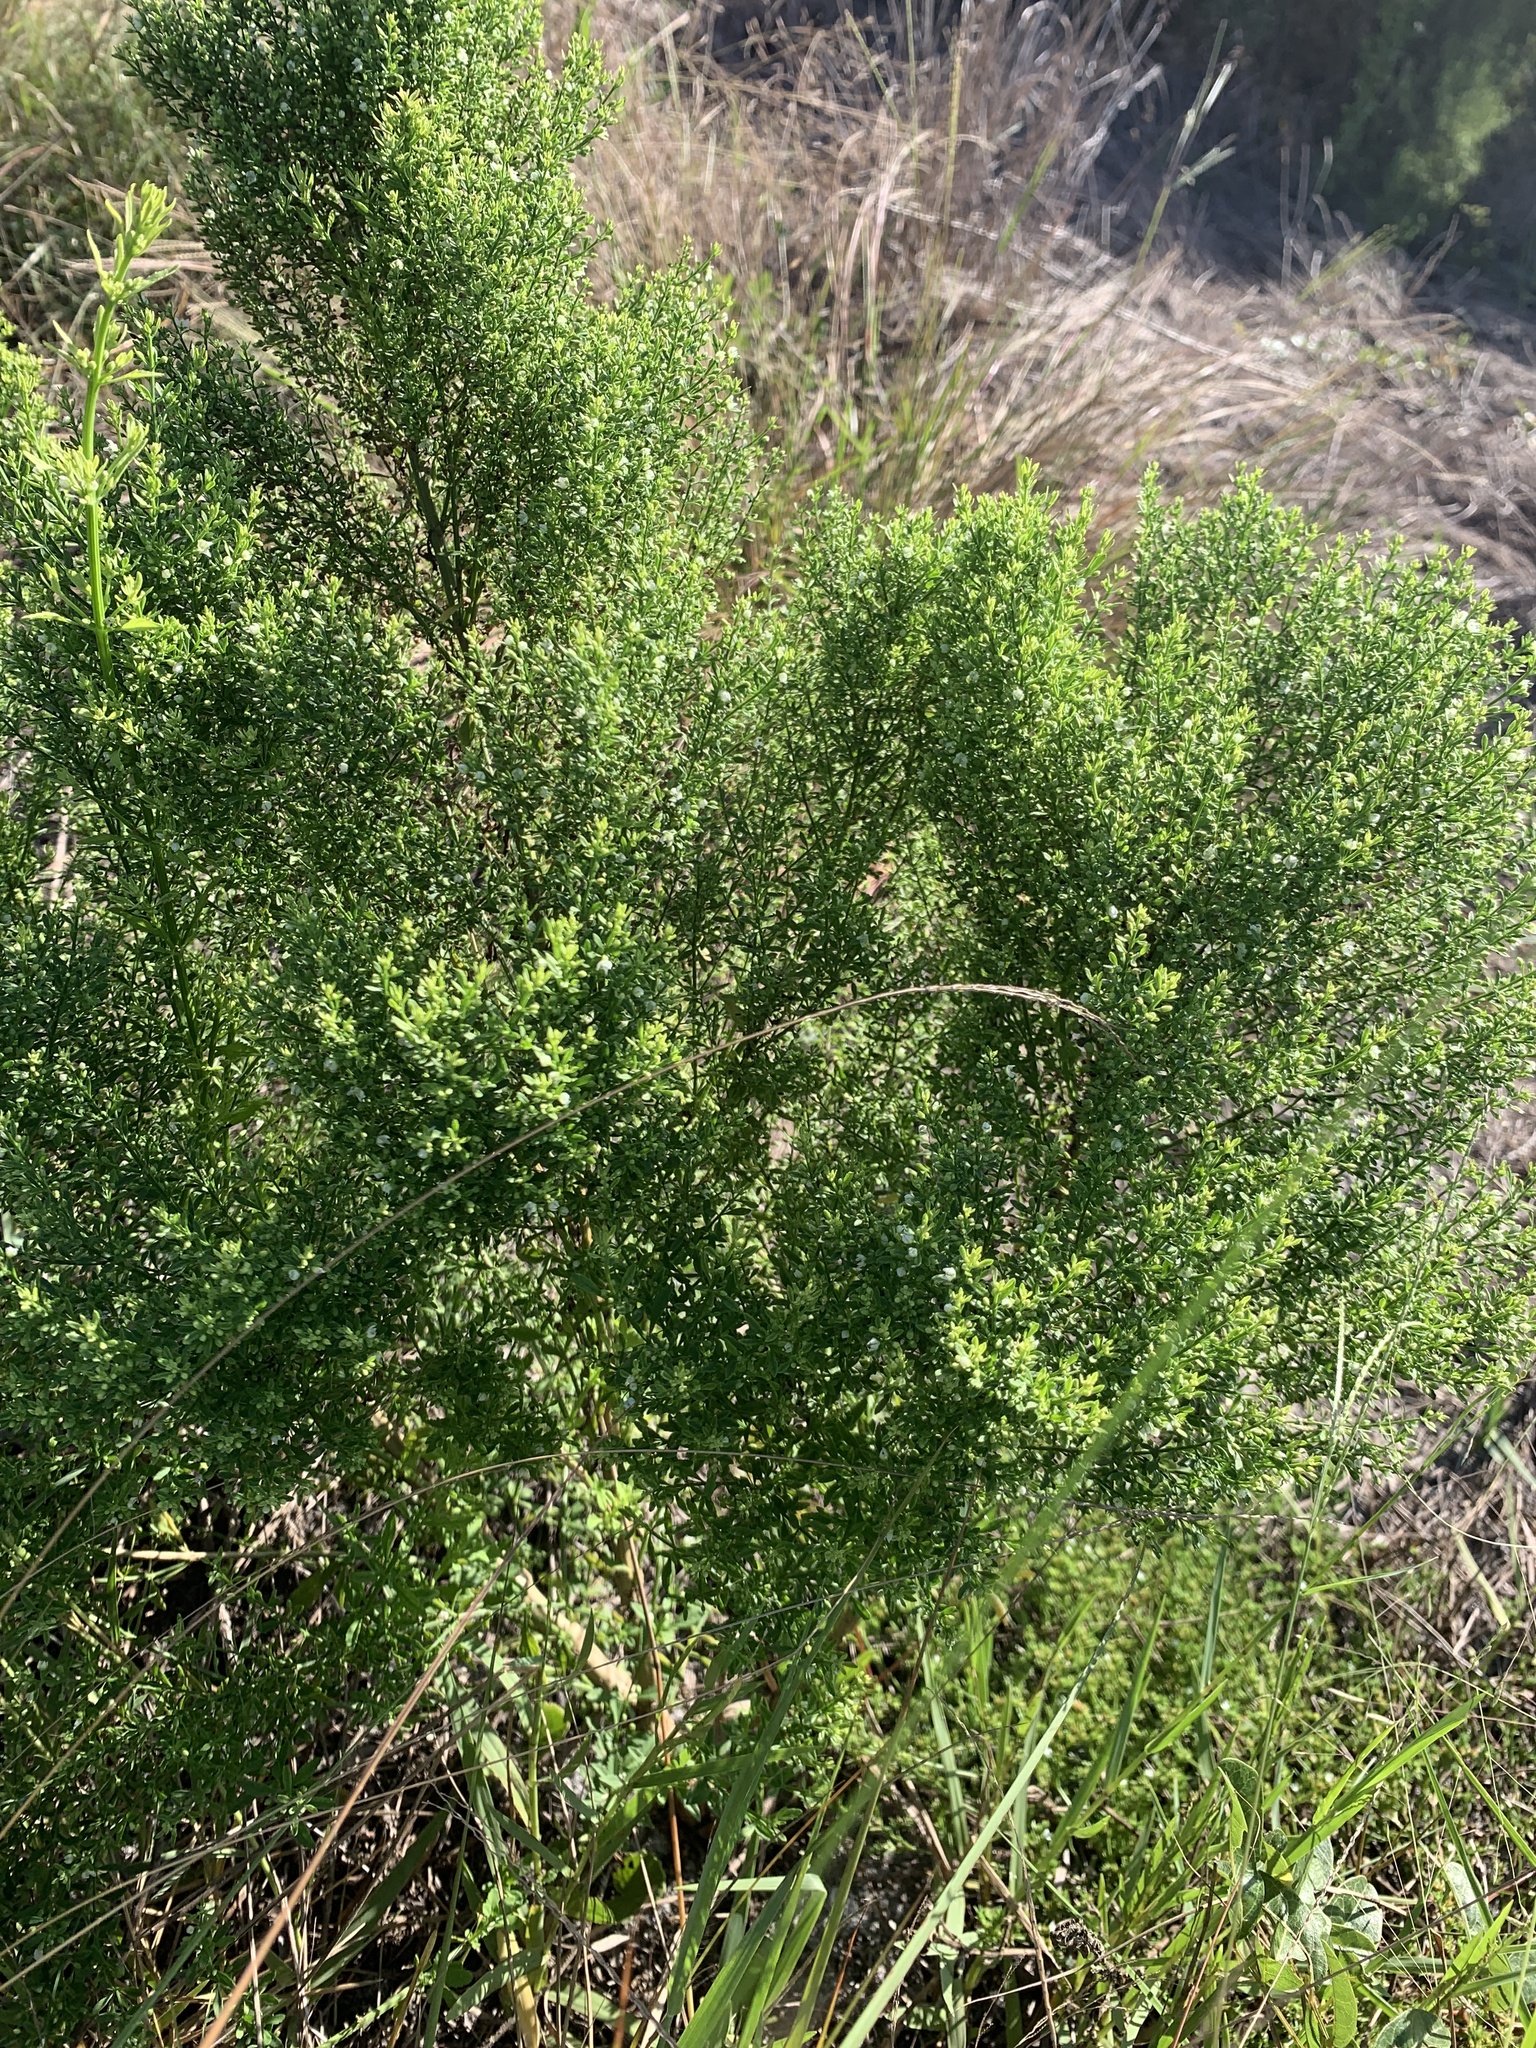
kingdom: Plantae
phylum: Tracheophyta
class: Magnoliopsida
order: Lamiales
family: Plantaginaceae
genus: Scoparia
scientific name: Scoparia dulcis
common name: Scoparia-weed
